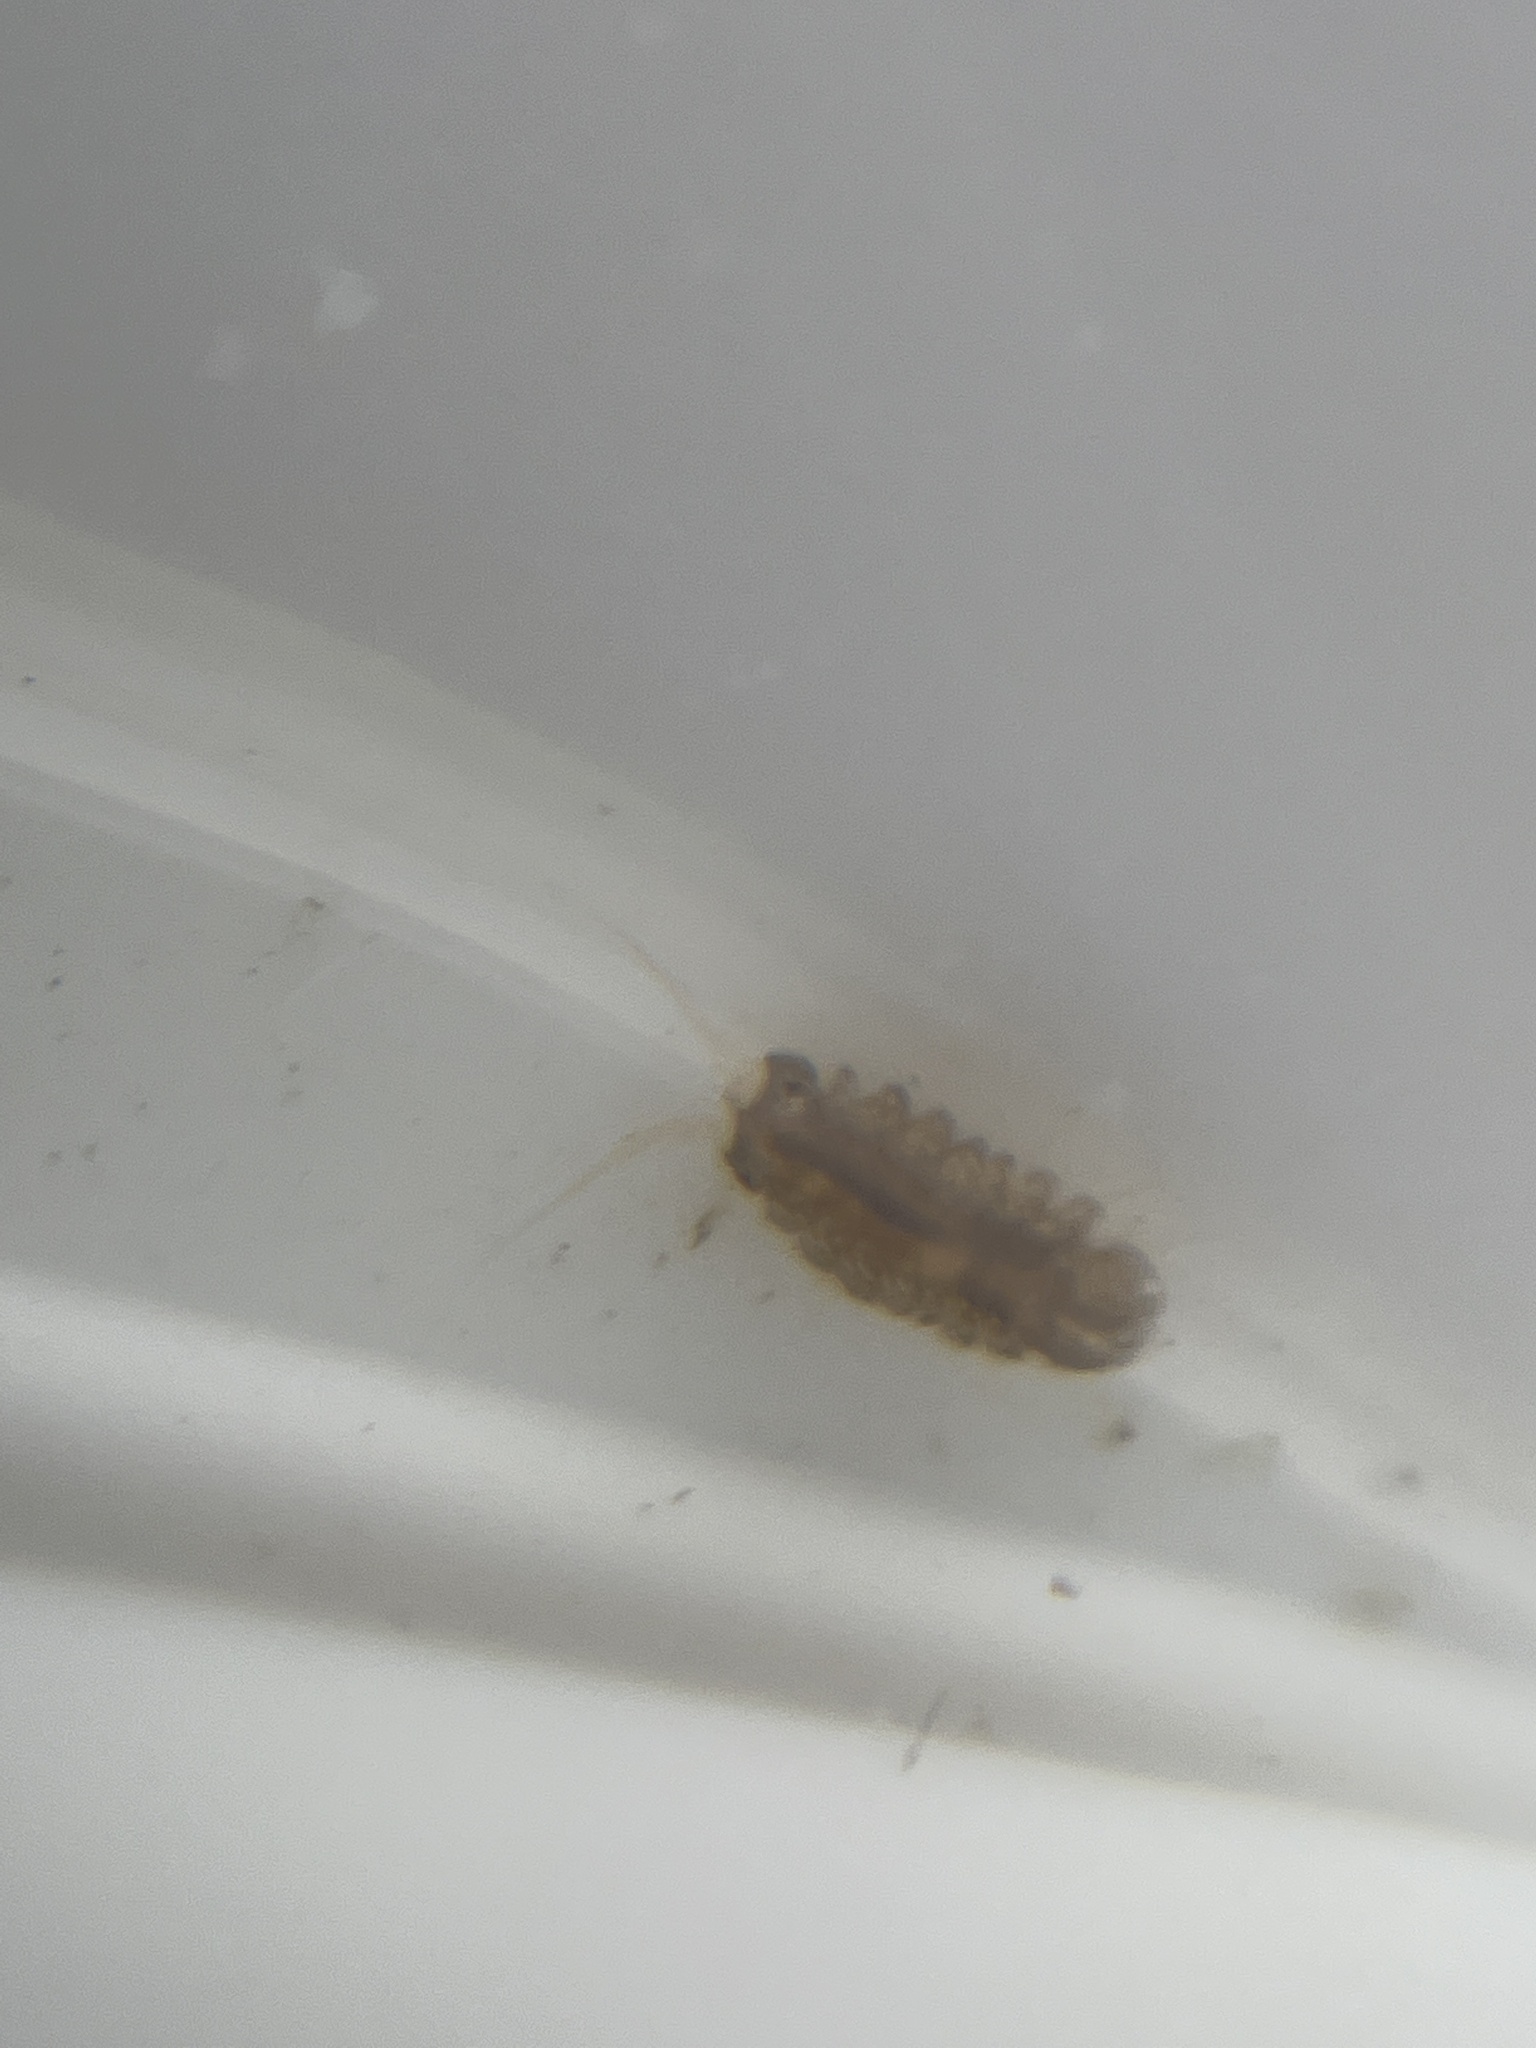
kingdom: Animalia
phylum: Arthropoda
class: Malacostraca
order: Isopoda
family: Janiridae
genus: Jaera
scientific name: Jaera
